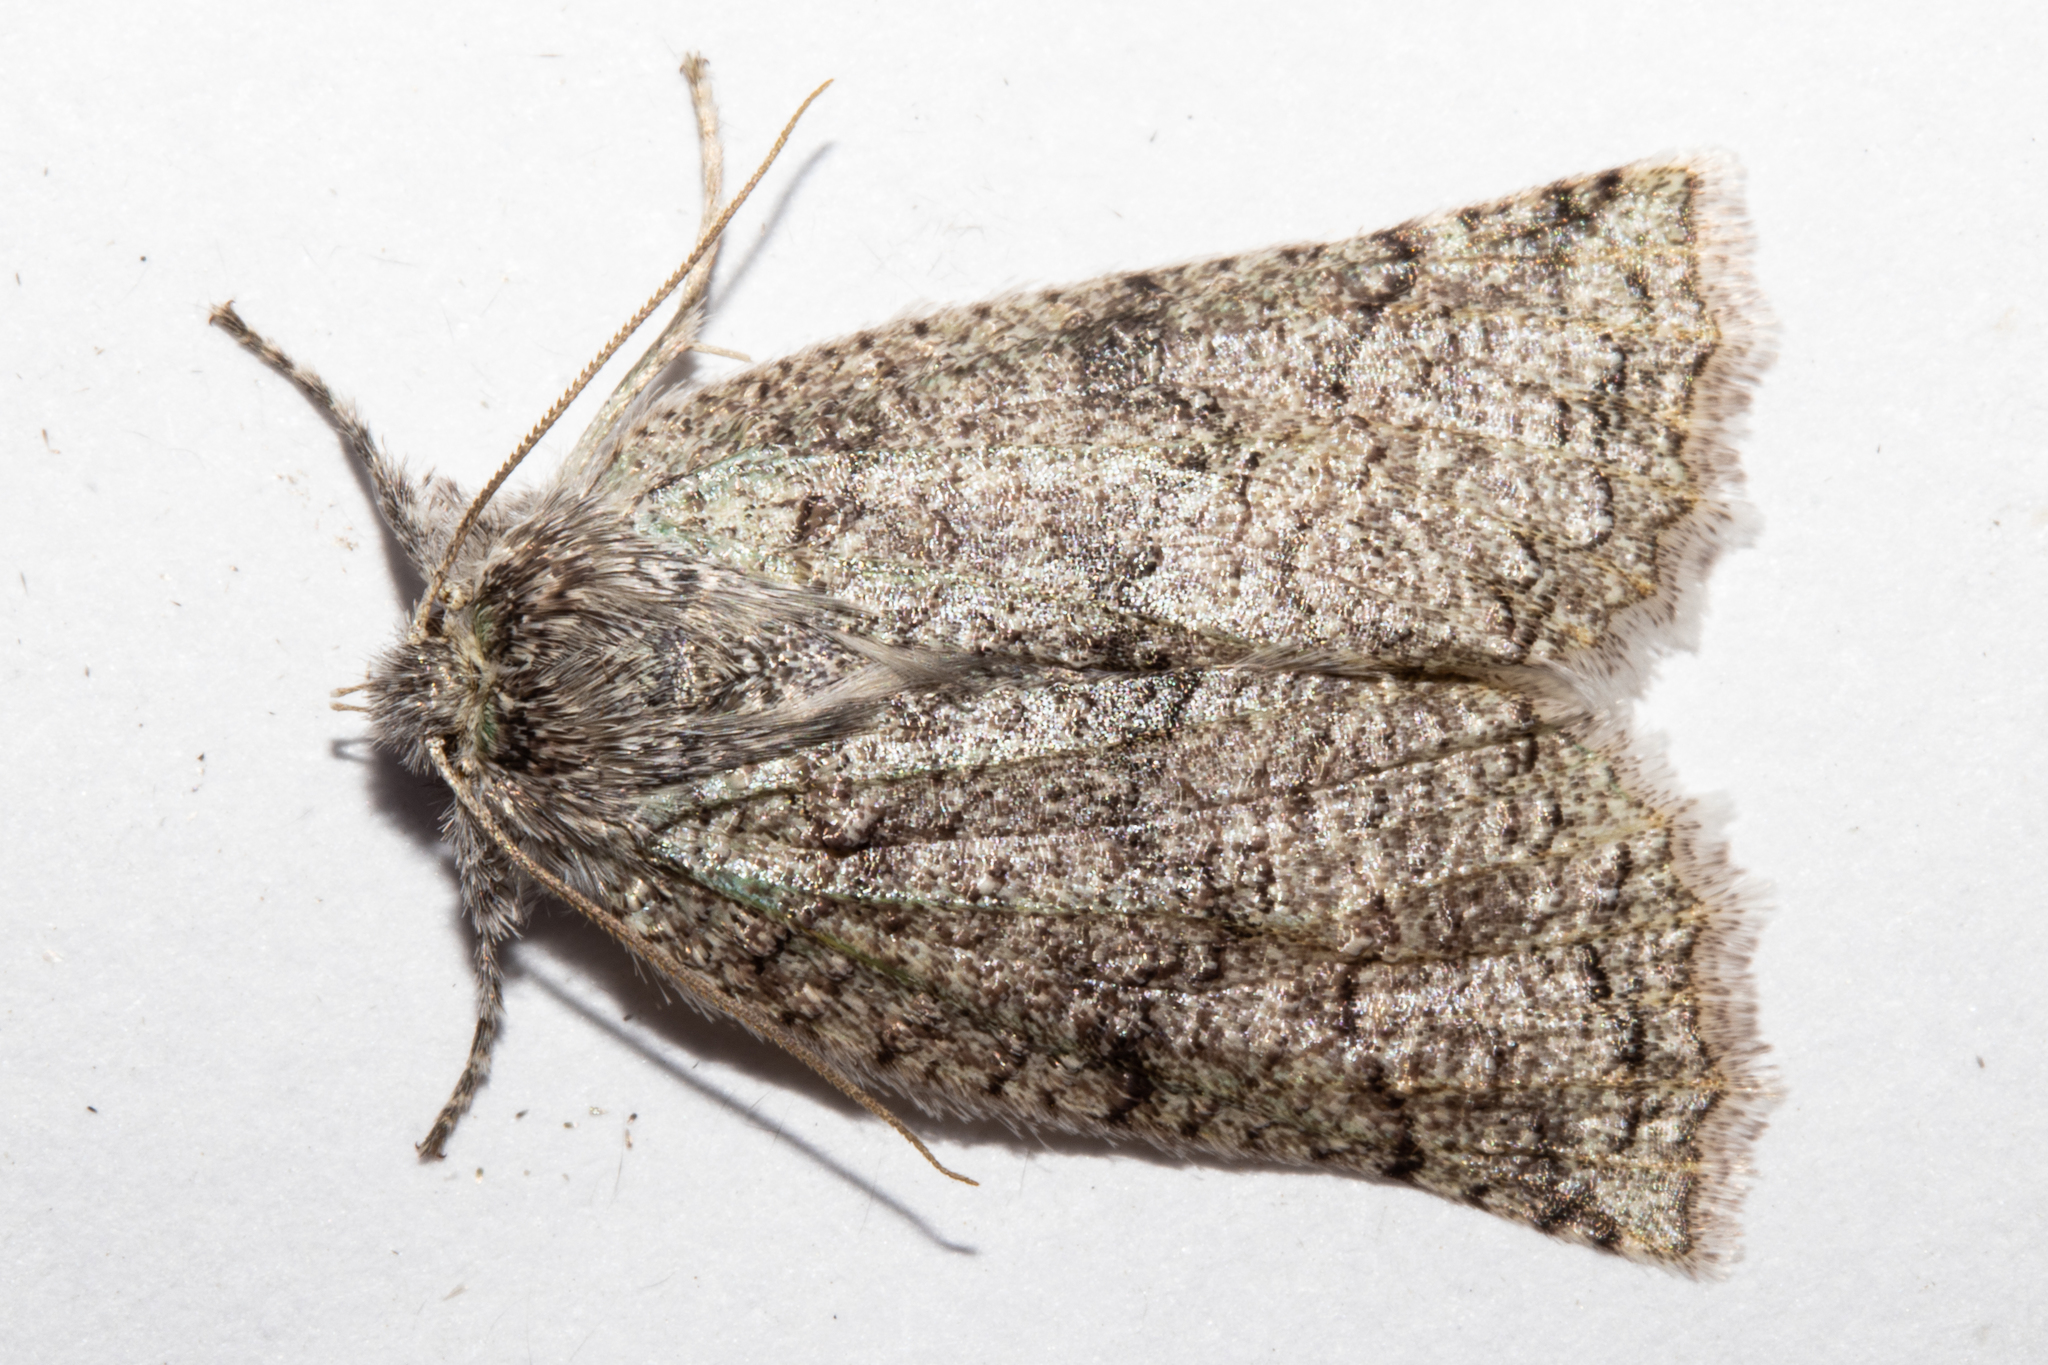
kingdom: Animalia
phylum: Arthropoda
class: Insecta
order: Lepidoptera
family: Geometridae
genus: Declana
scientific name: Declana floccosa
